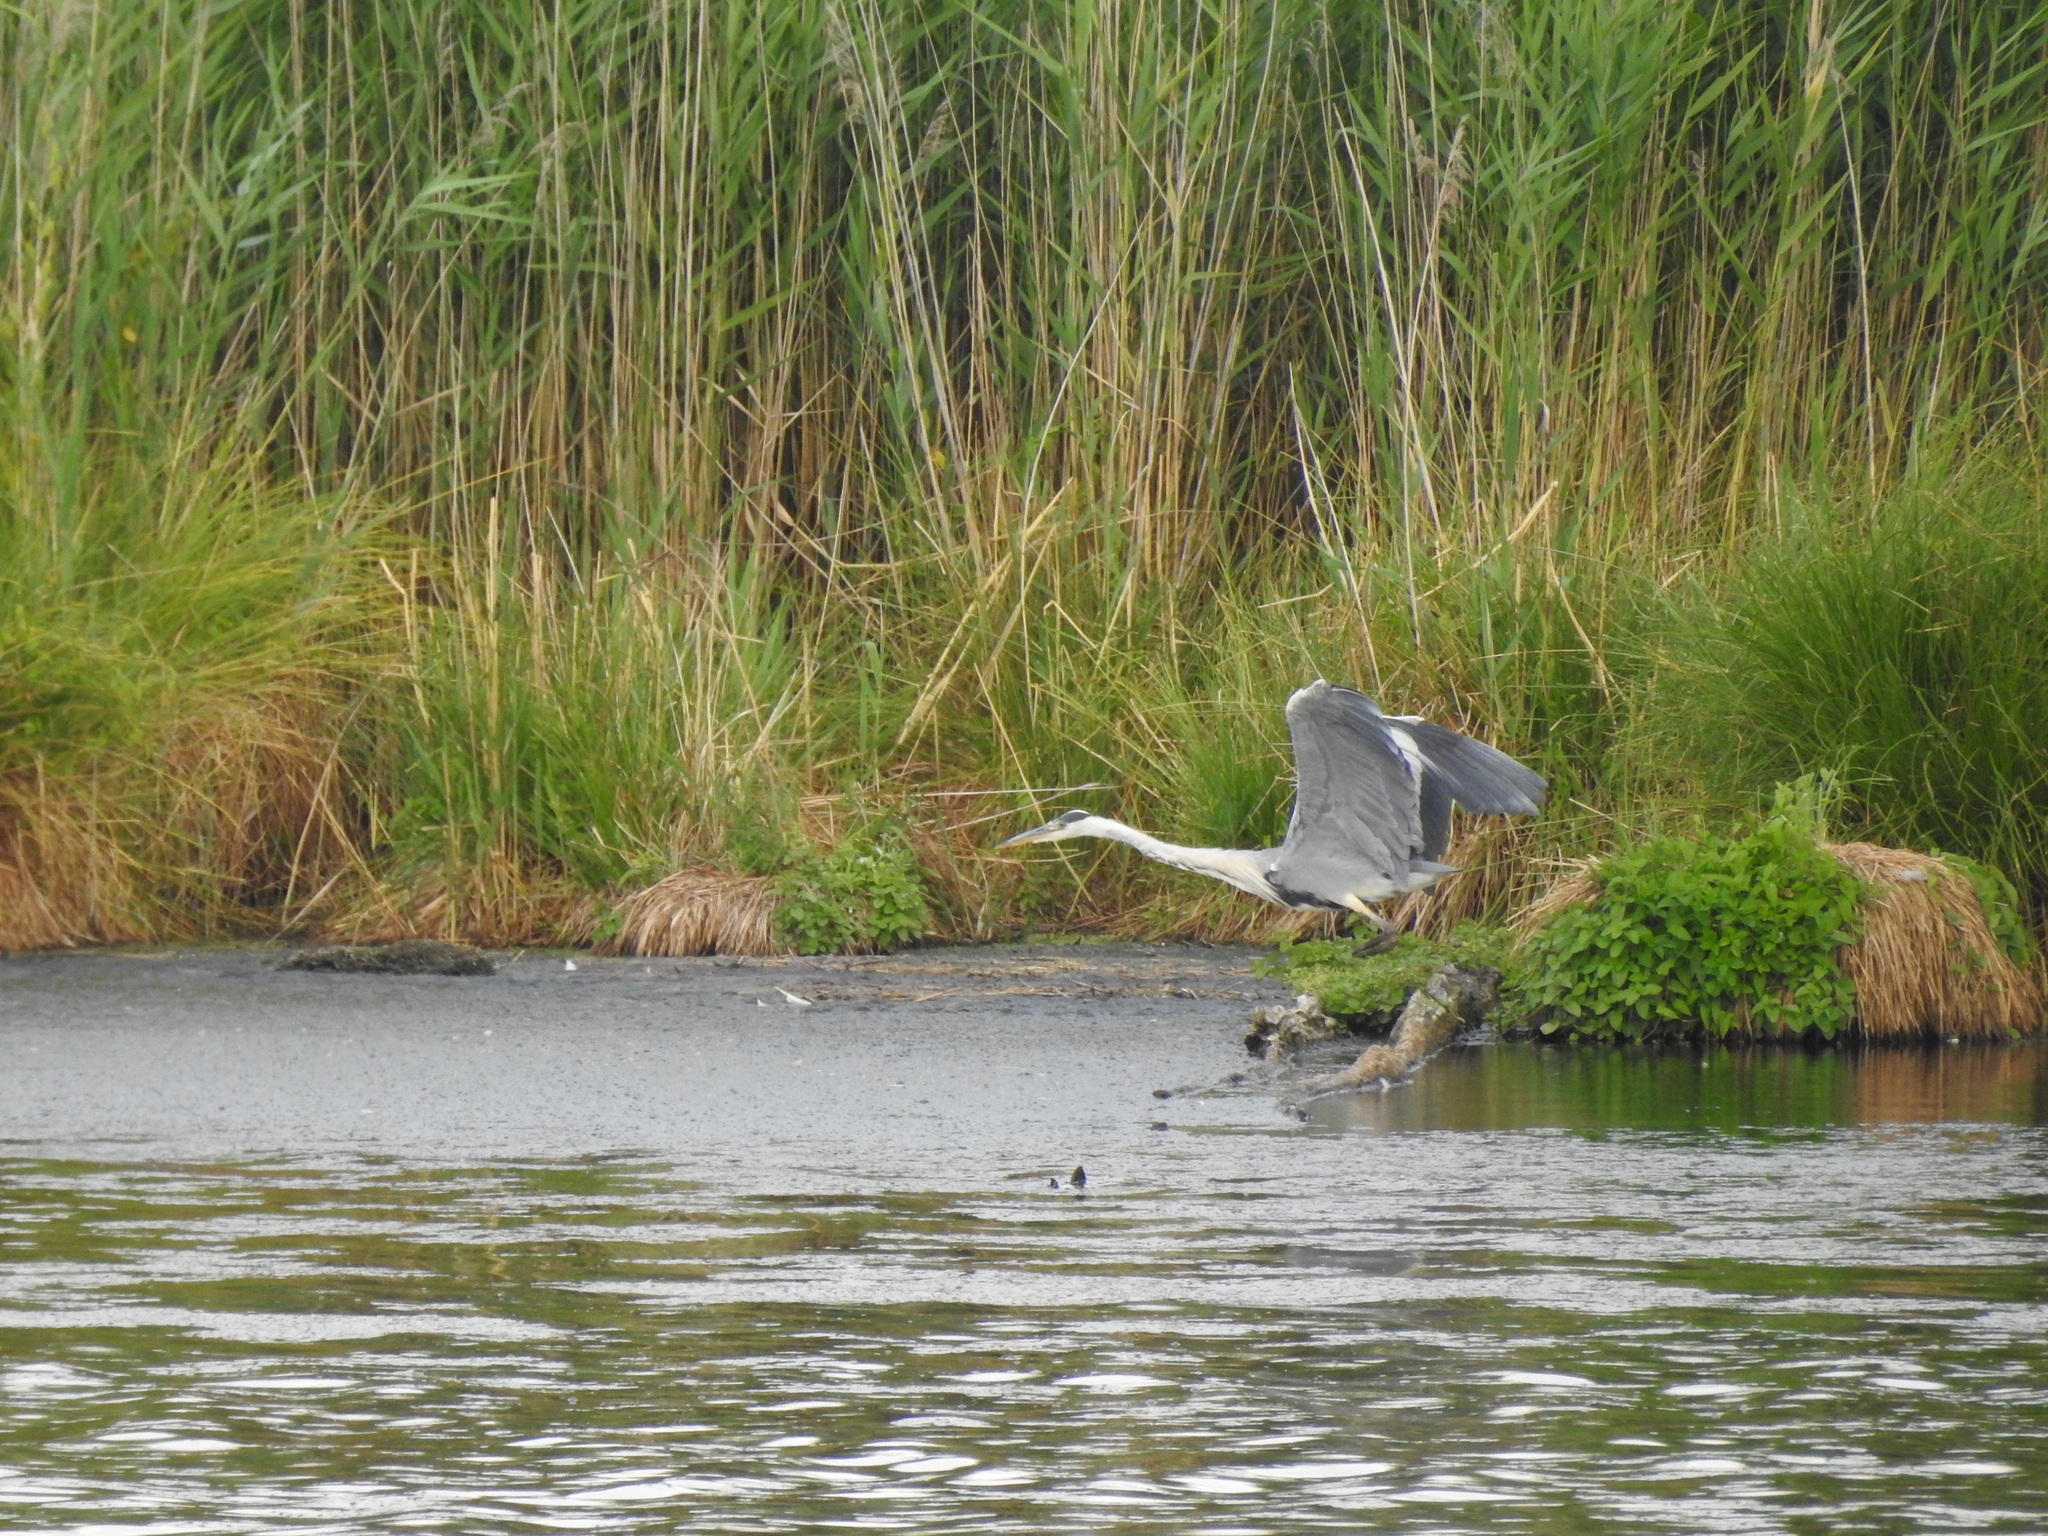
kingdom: Animalia
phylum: Chordata
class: Aves
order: Pelecaniformes
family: Ardeidae
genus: Ardea
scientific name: Ardea cinerea
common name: Grey heron
